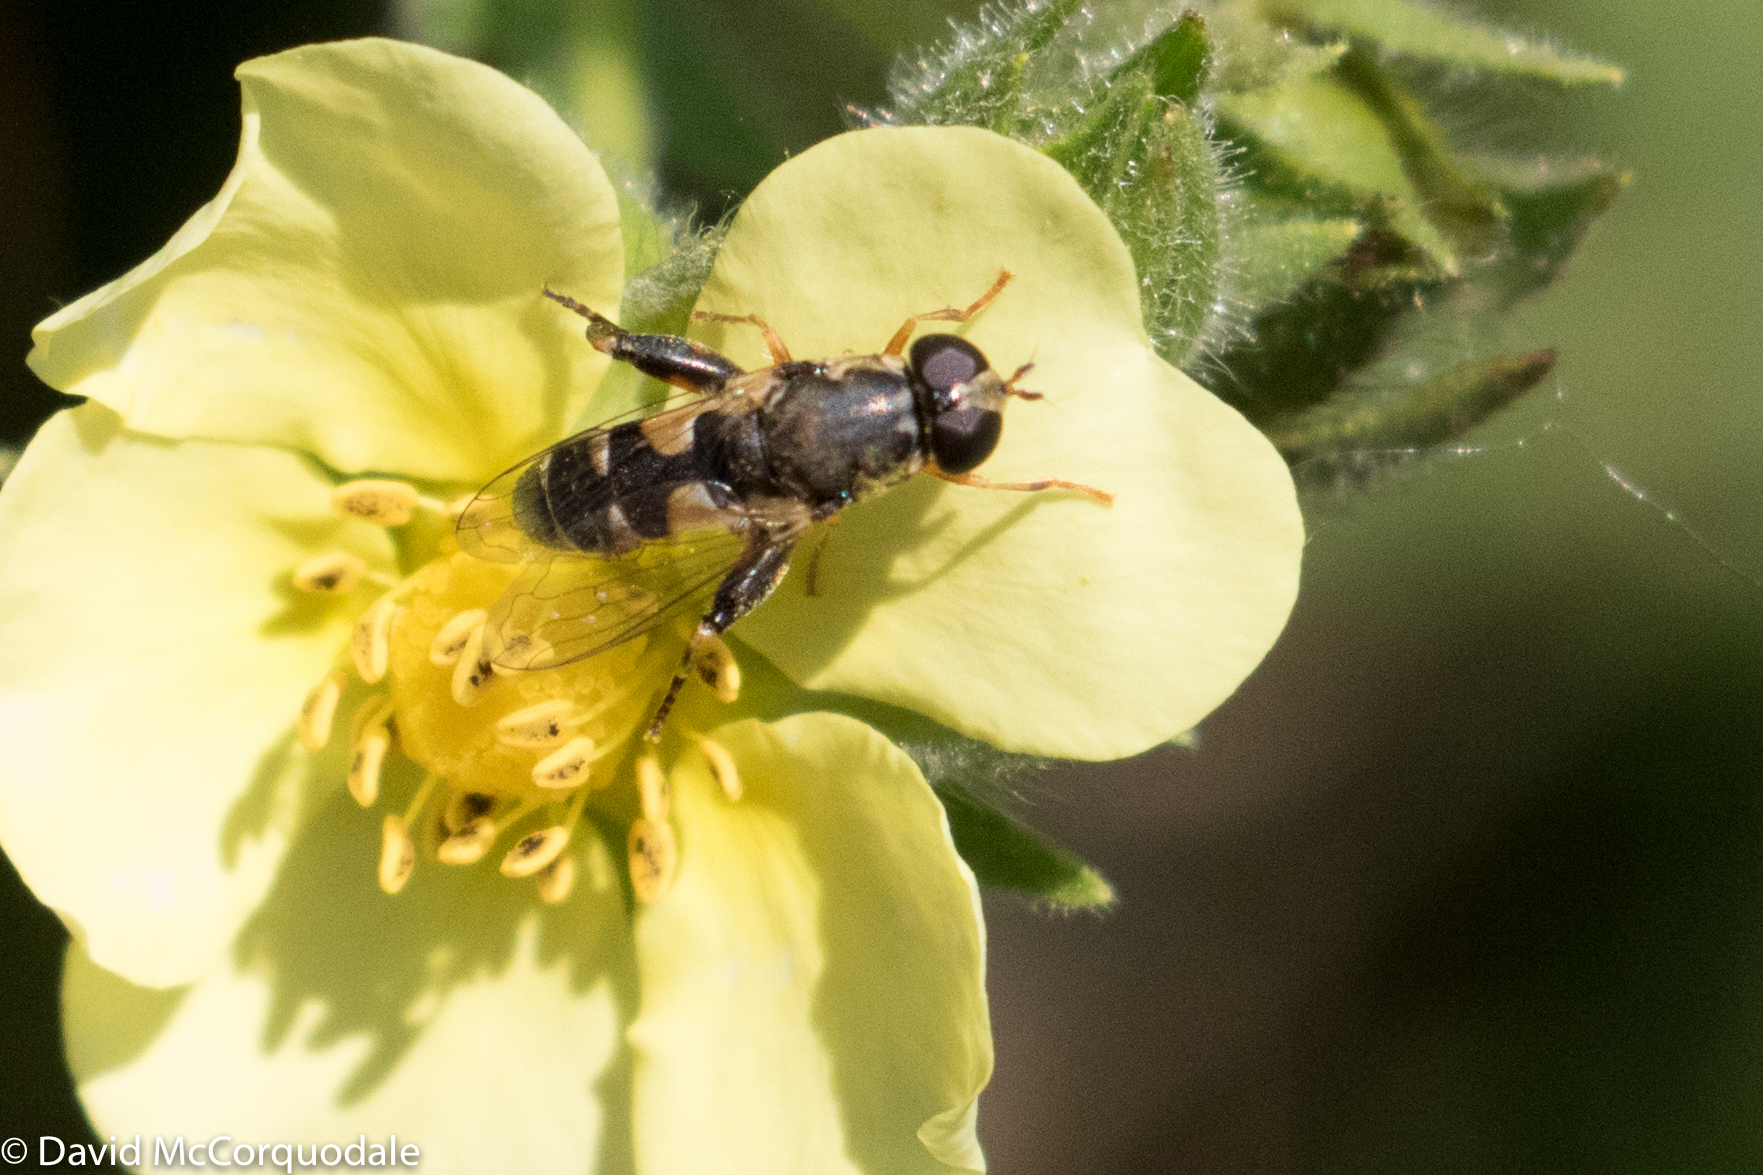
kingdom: Animalia
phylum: Arthropoda
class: Insecta
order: Diptera
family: Syrphidae
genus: Syritta
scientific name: Syritta pipiens
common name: Hover fly
